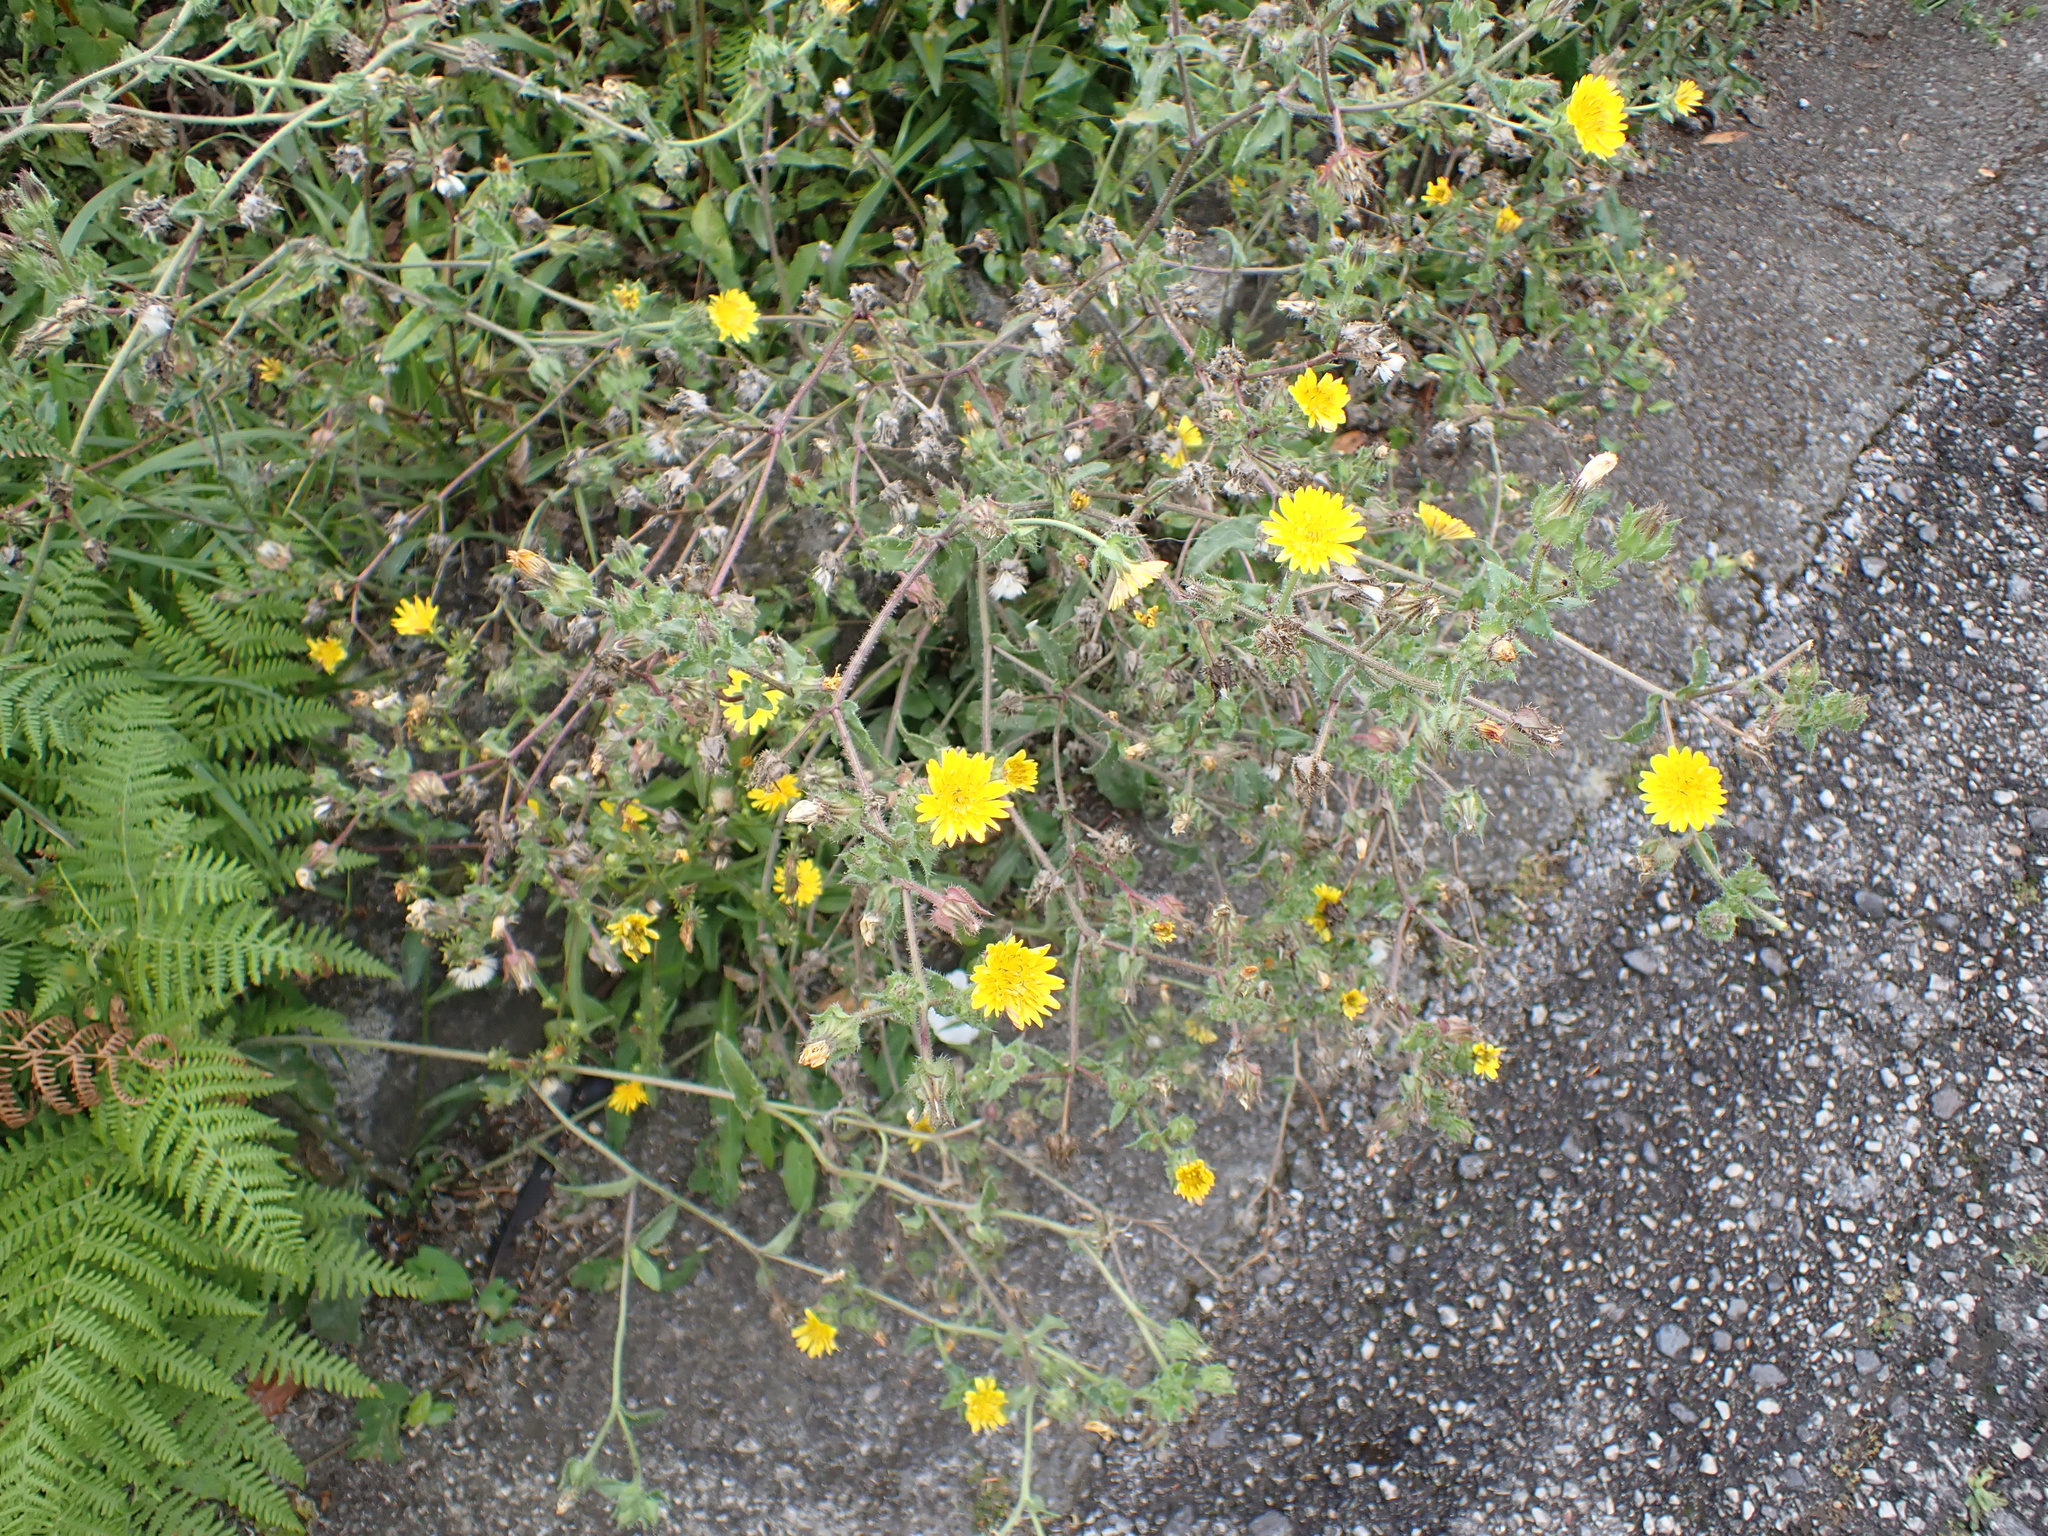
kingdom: Plantae
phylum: Tracheophyta
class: Magnoliopsida
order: Asterales
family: Asteraceae
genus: Helminthotheca
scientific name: Helminthotheca echioides
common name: Ox-tongue
